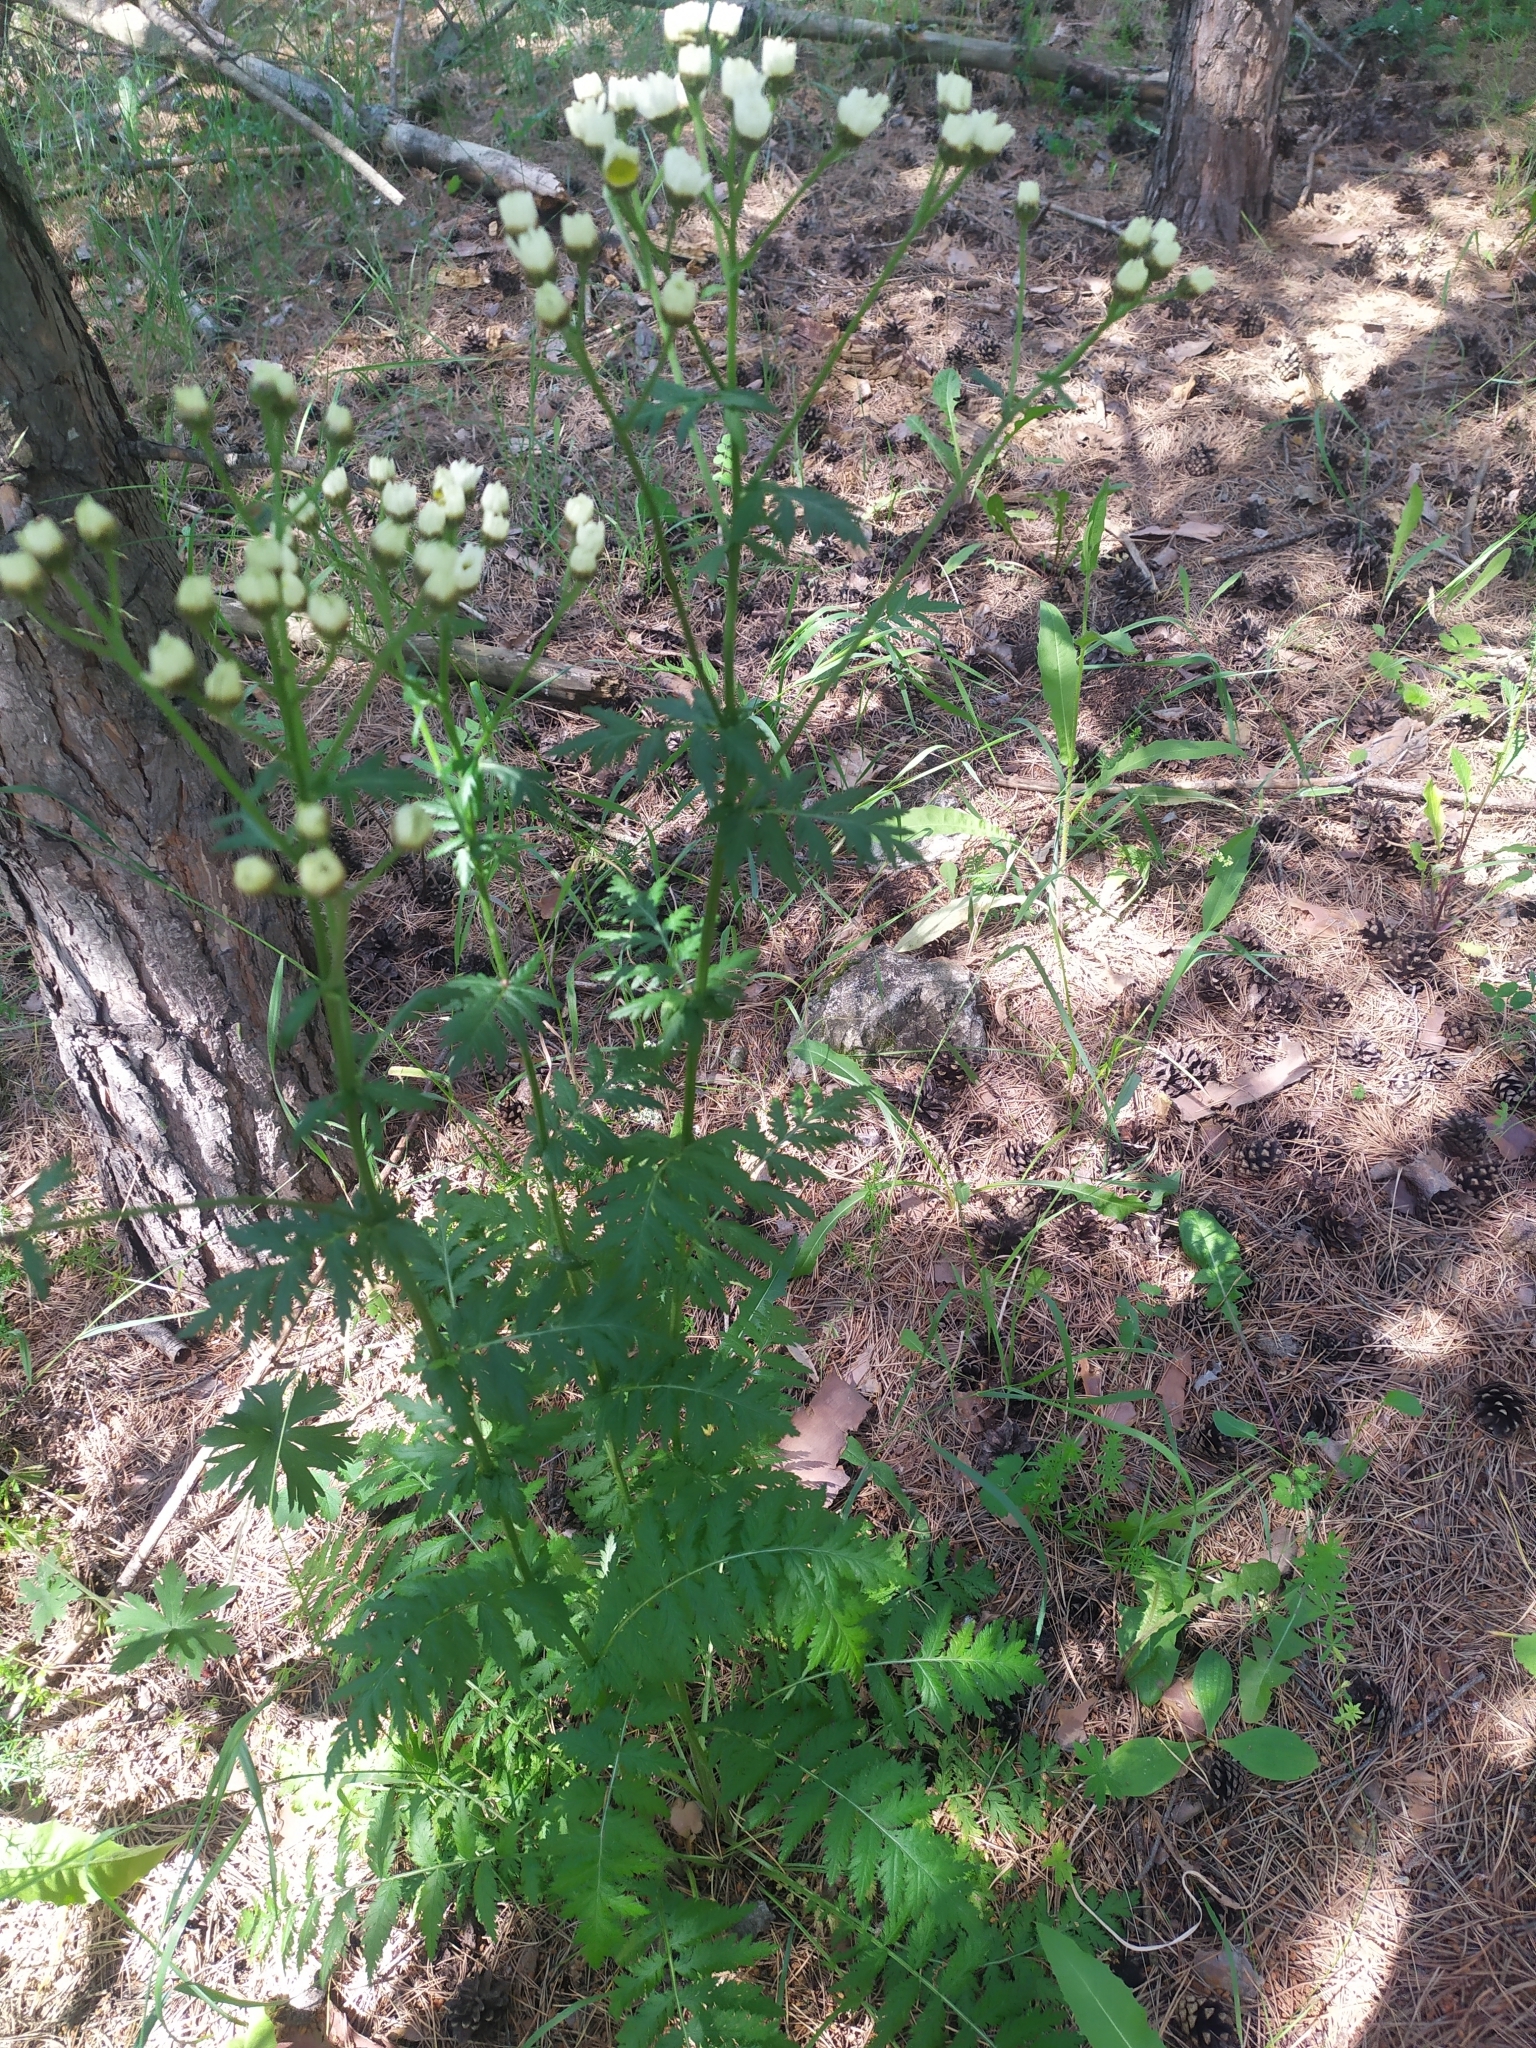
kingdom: Plantae
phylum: Tracheophyta
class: Magnoliopsida
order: Asterales
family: Asteraceae
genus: Tanacetum
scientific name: Tanacetum corymbosum
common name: Scentless feverfew
